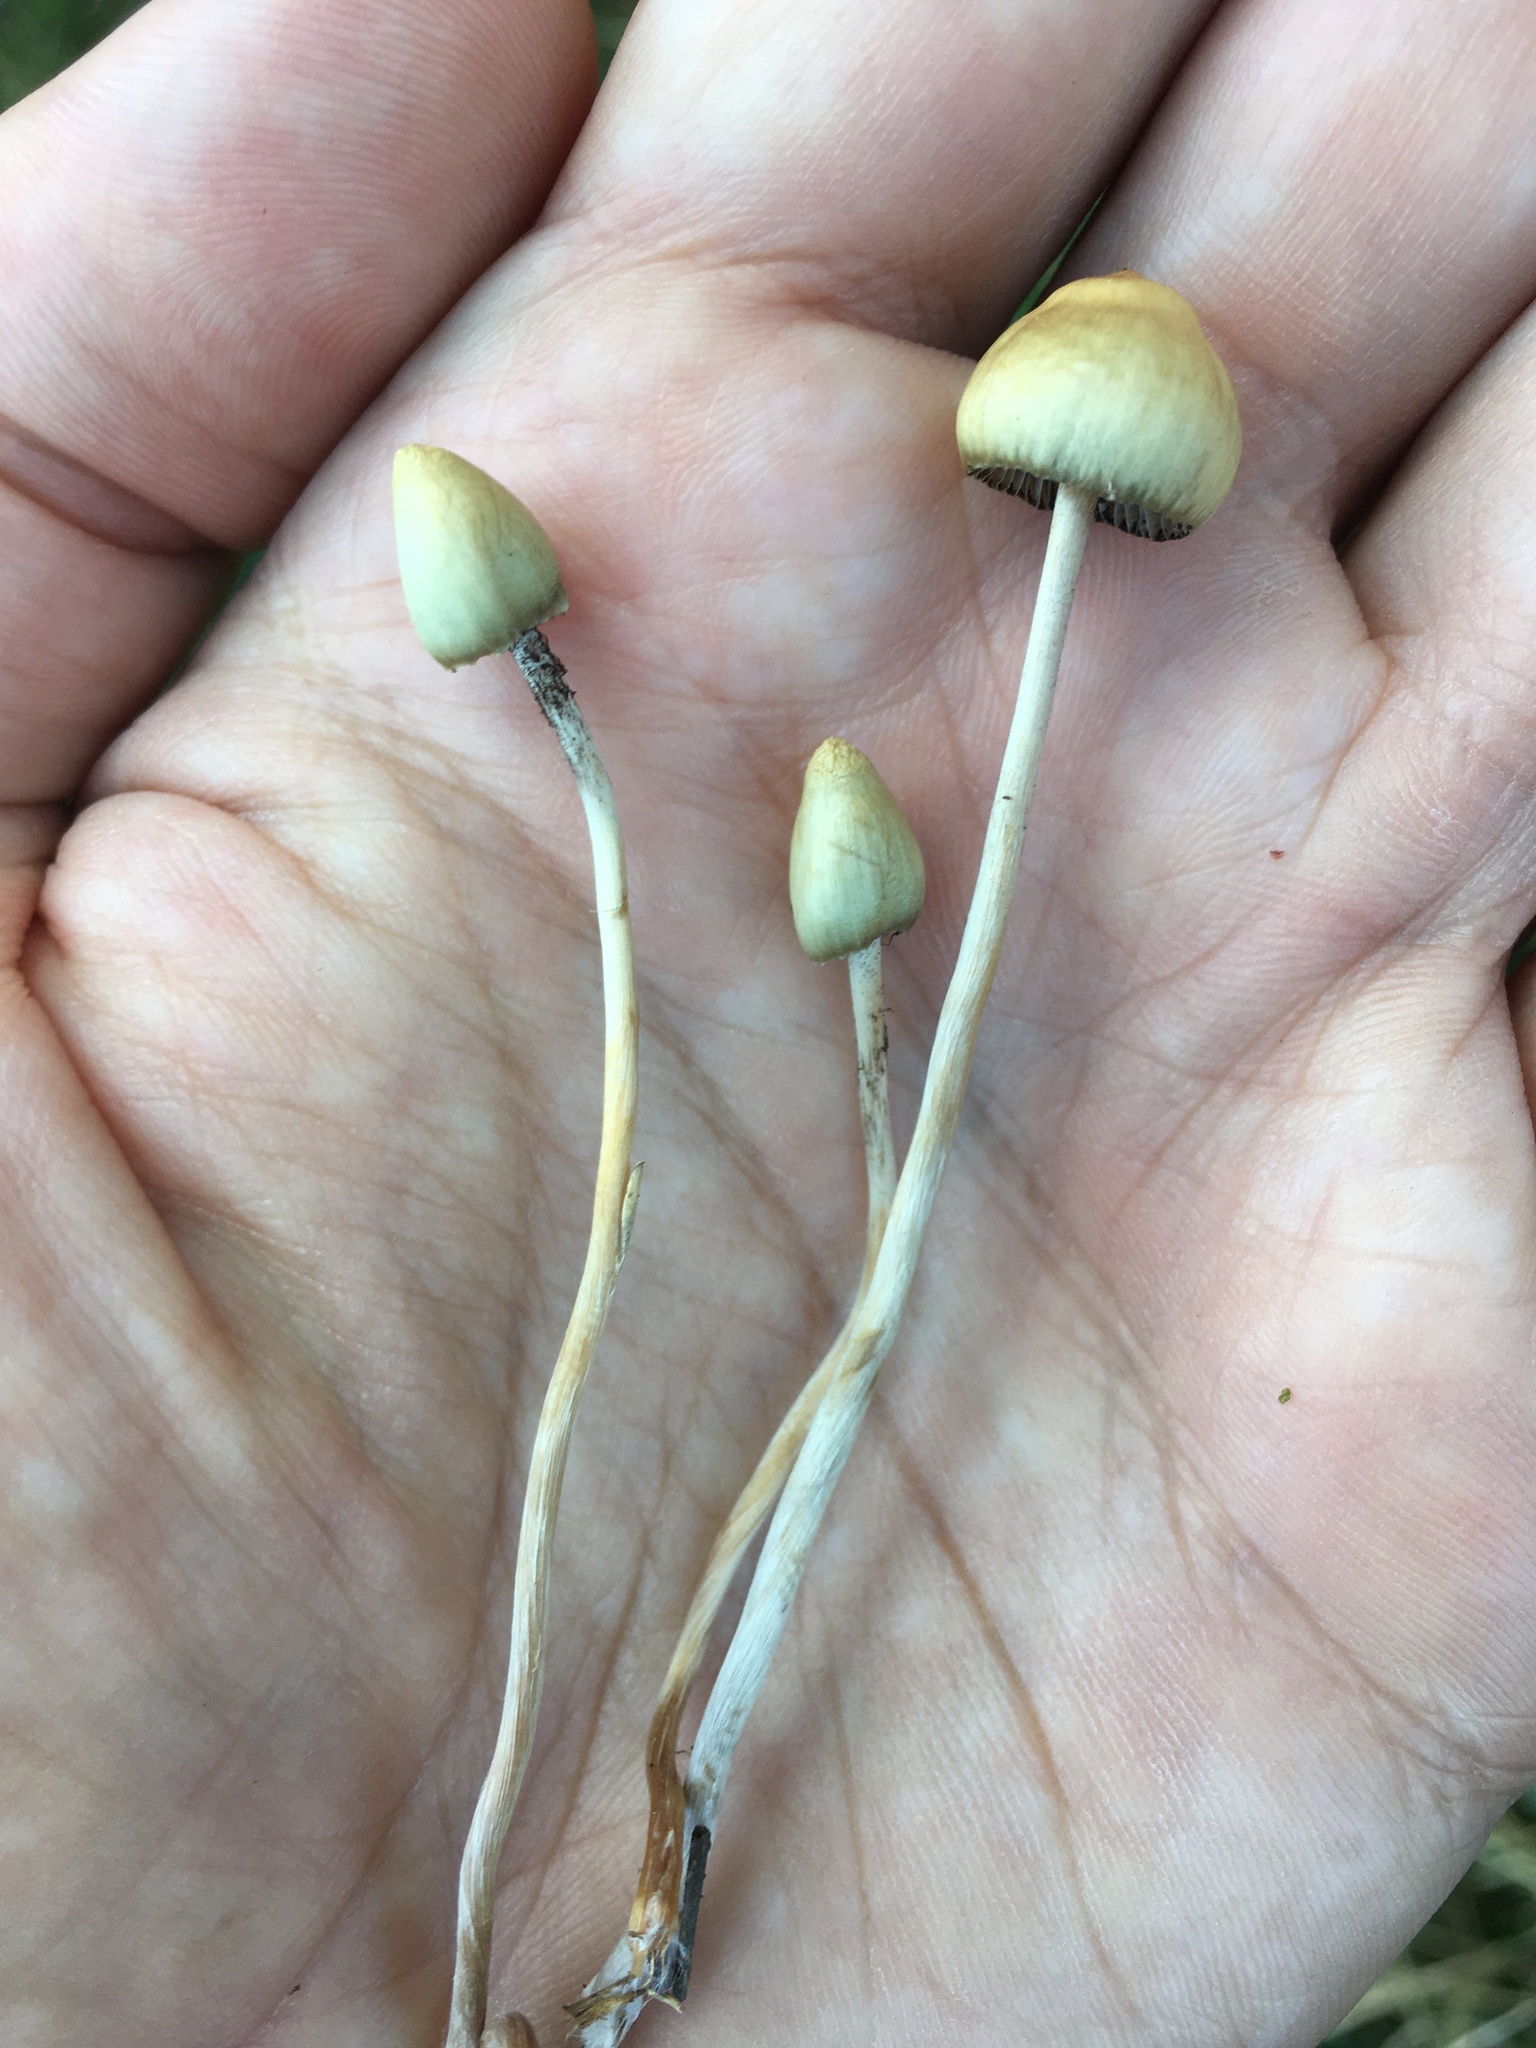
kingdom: Fungi
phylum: Basidiomycota
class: Agaricomycetes
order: Agaricales
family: Hymenogastraceae
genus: Psilocybe
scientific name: Psilocybe semilanceata
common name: Liberty cap
